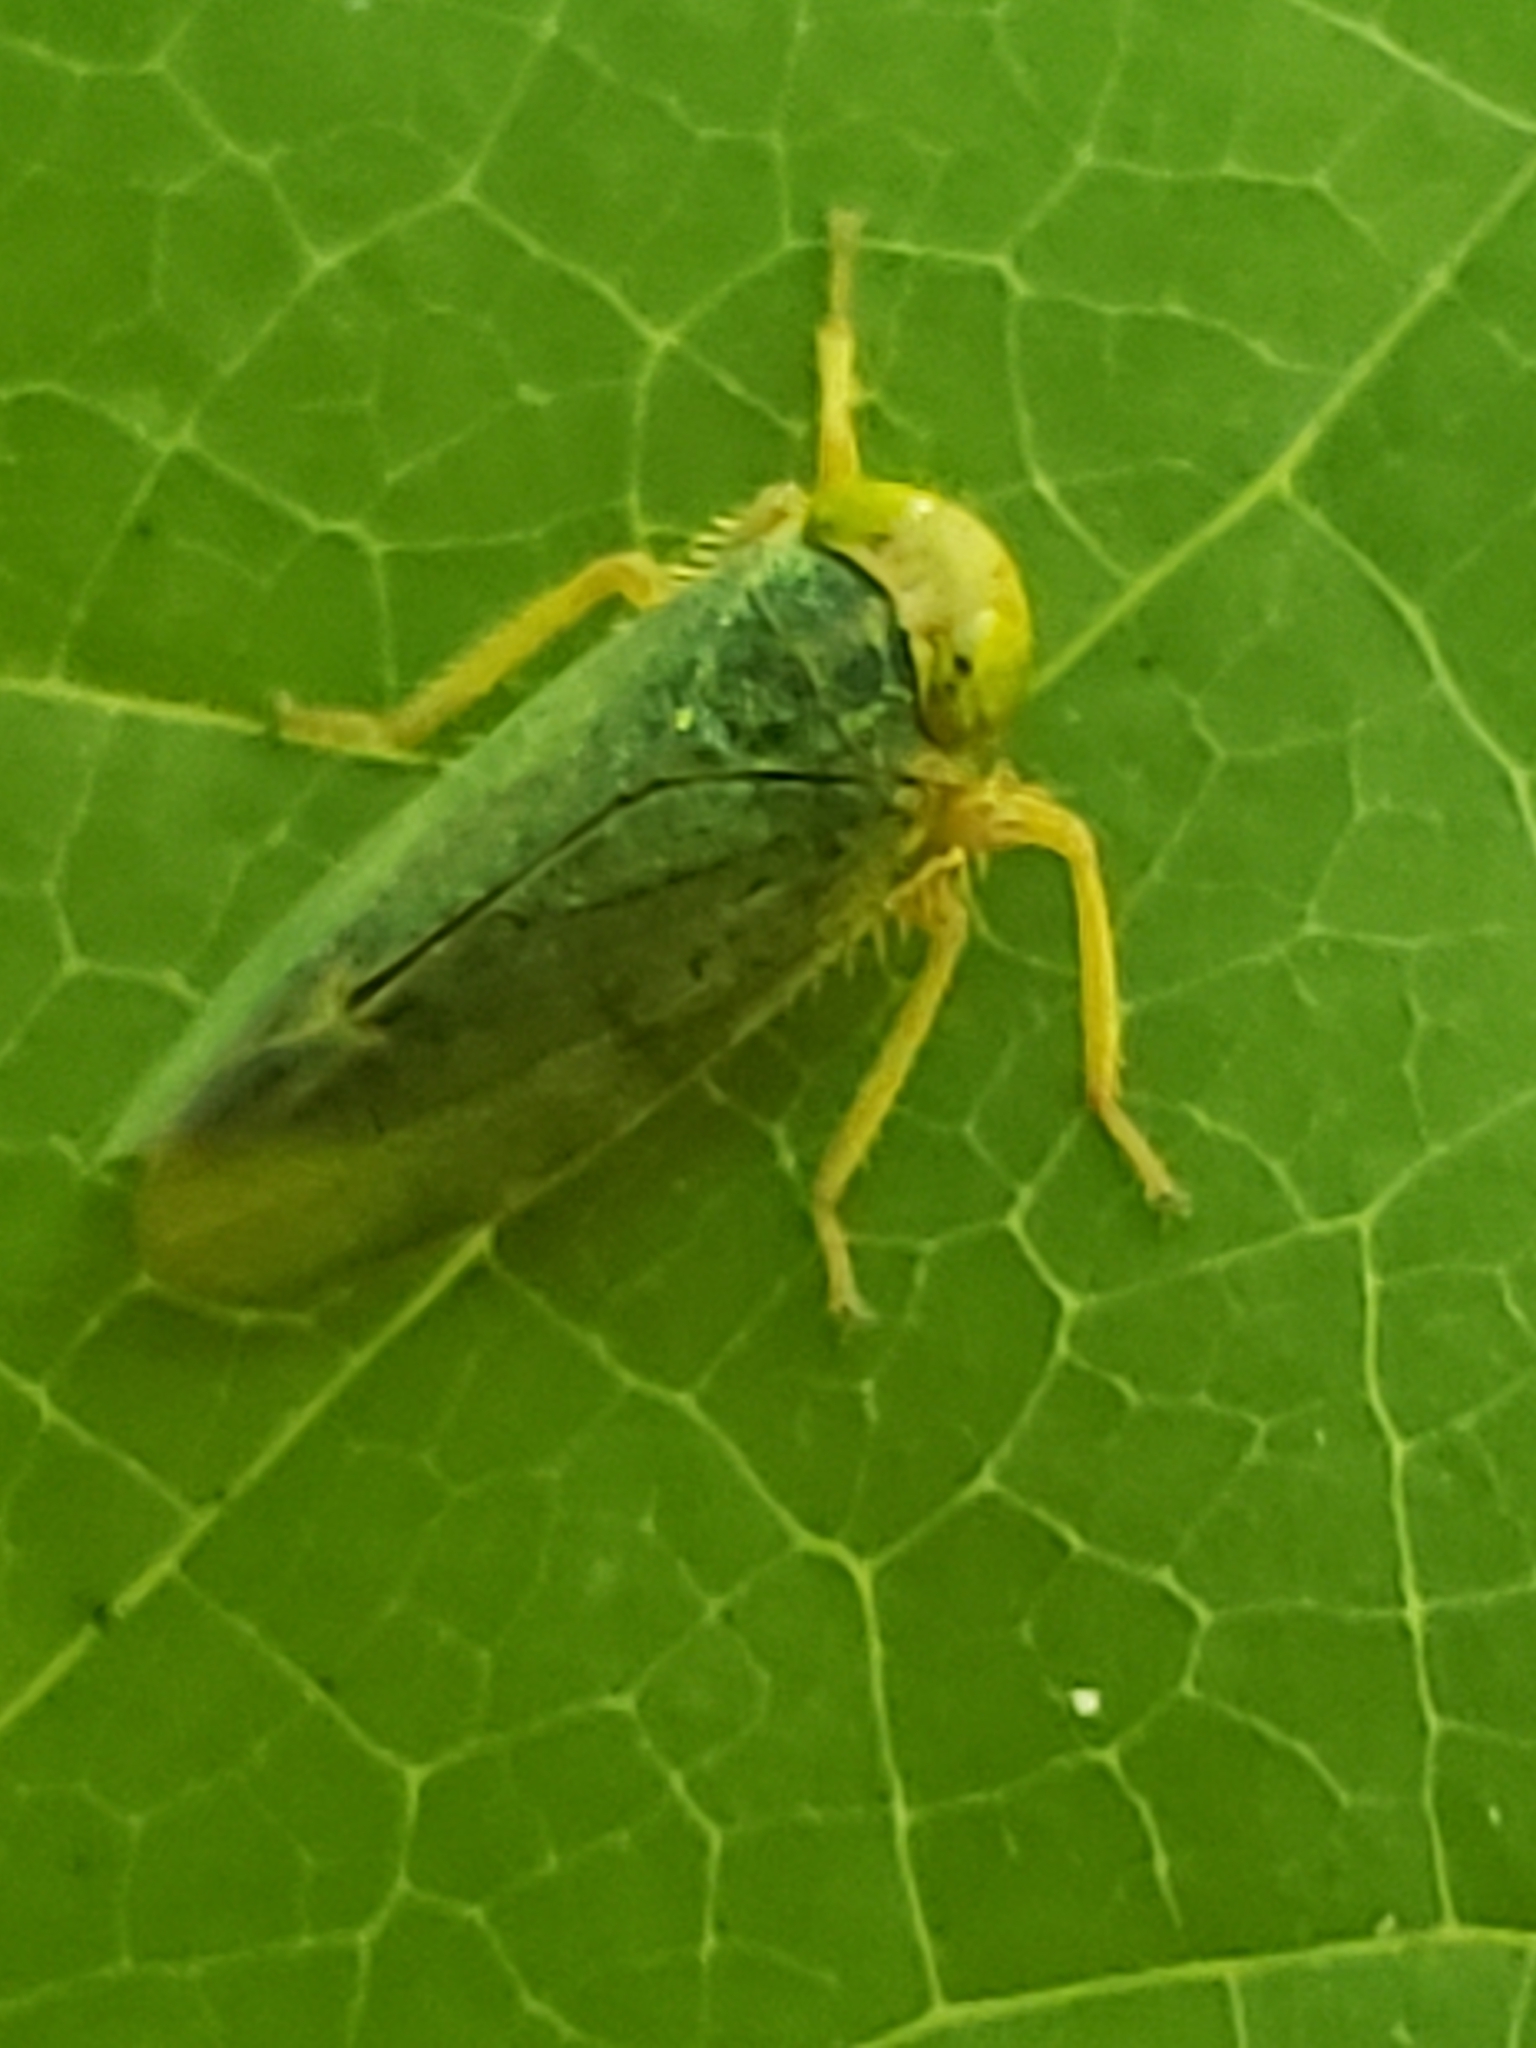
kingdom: Animalia
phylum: Arthropoda
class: Insecta
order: Hemiptera
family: Cicadellidae
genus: Jikradia
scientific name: Jikradia olitoria
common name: Coppery leafhopper
